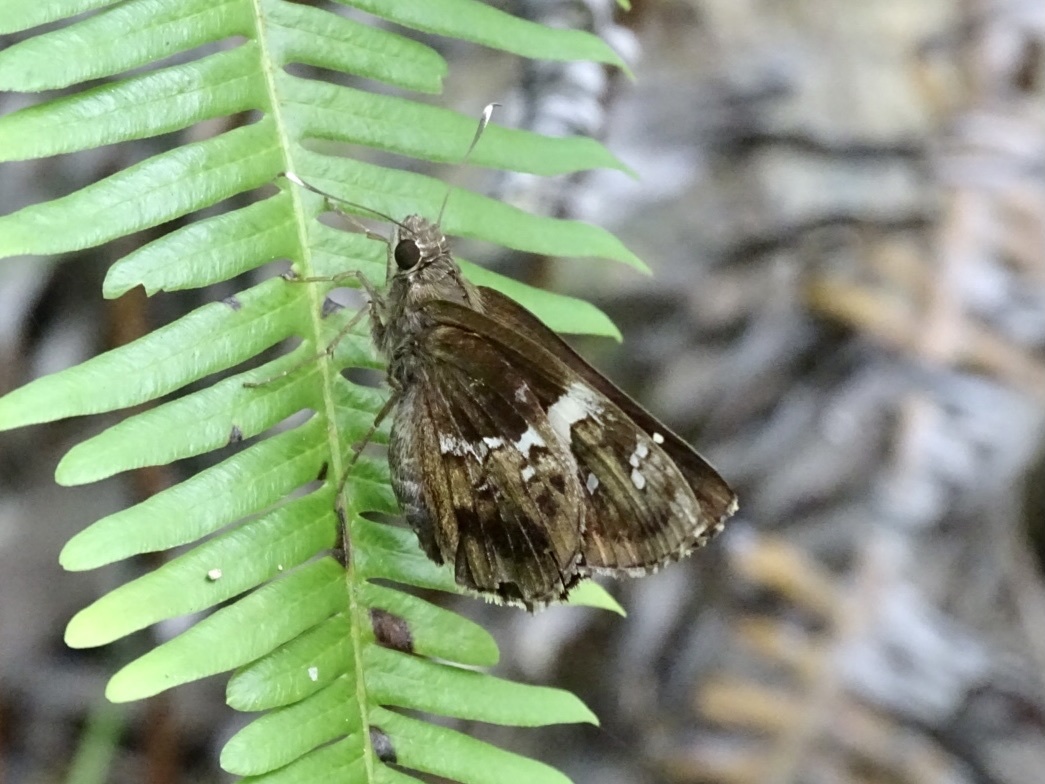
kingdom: Animalia
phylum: Arthropoda
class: Insecta
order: Lepidoptera
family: Hesperiidae
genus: Hyarotis
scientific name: Hyarotis adrastus
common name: Tree flitter
